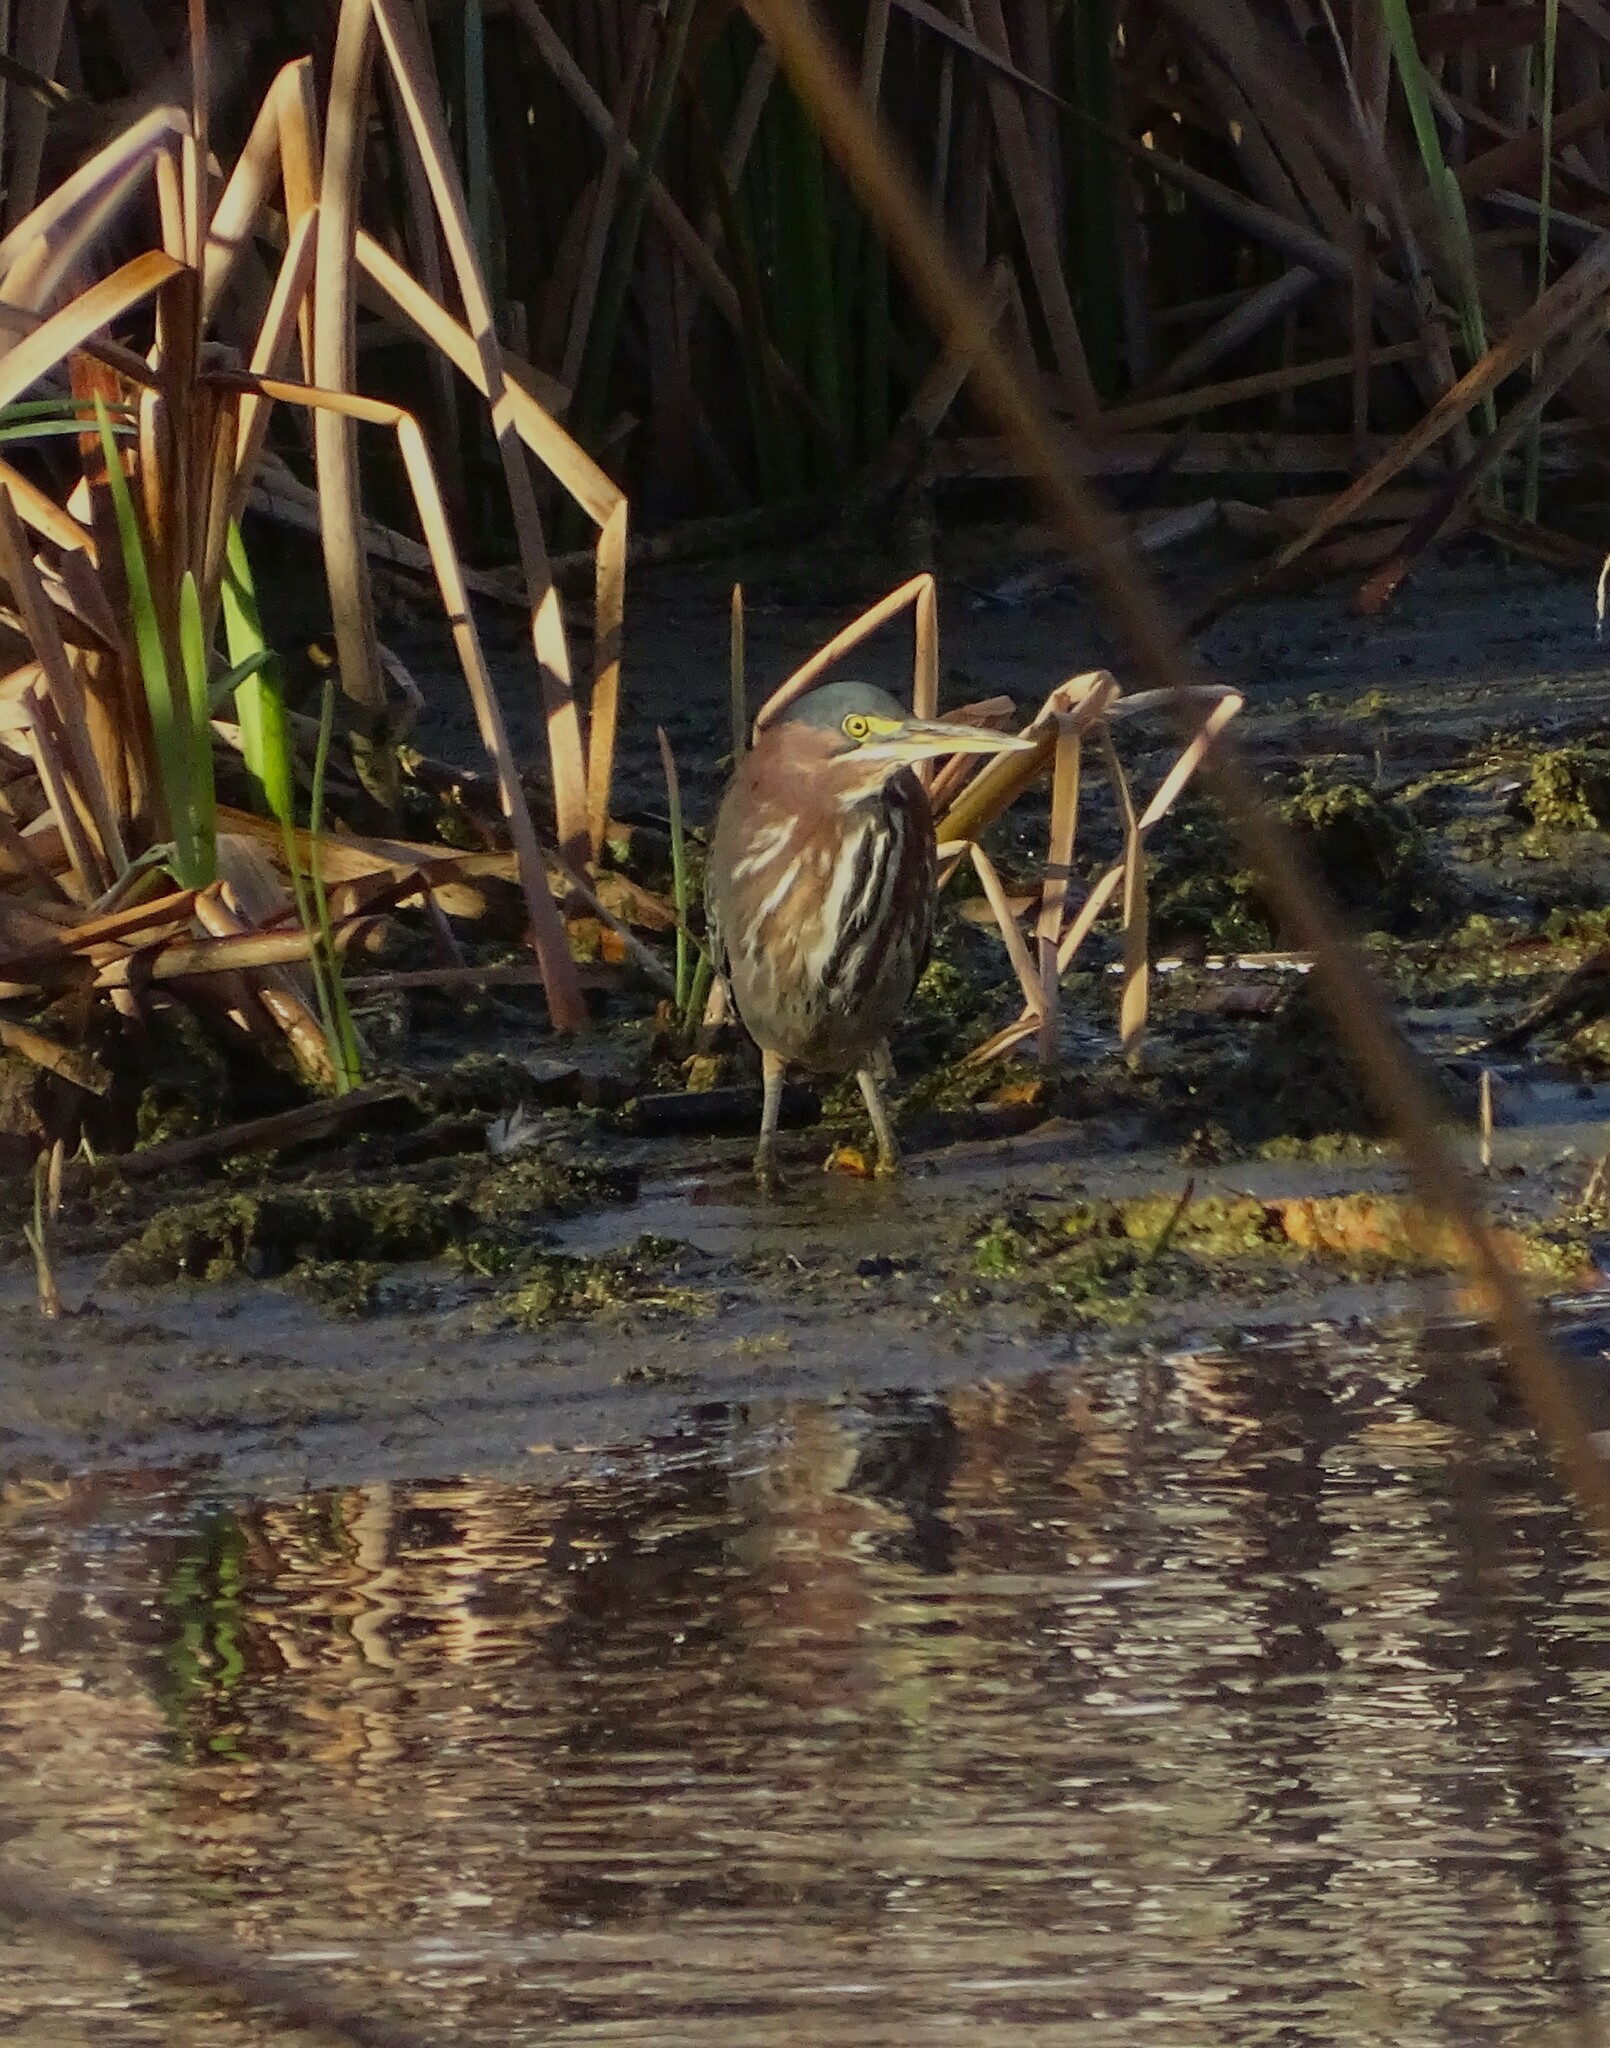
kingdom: Animalia
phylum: Chordata
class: Aves
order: Pelecaniformes
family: Ardeidae
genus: Butorides
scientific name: Butorides virescens
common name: Green heron
